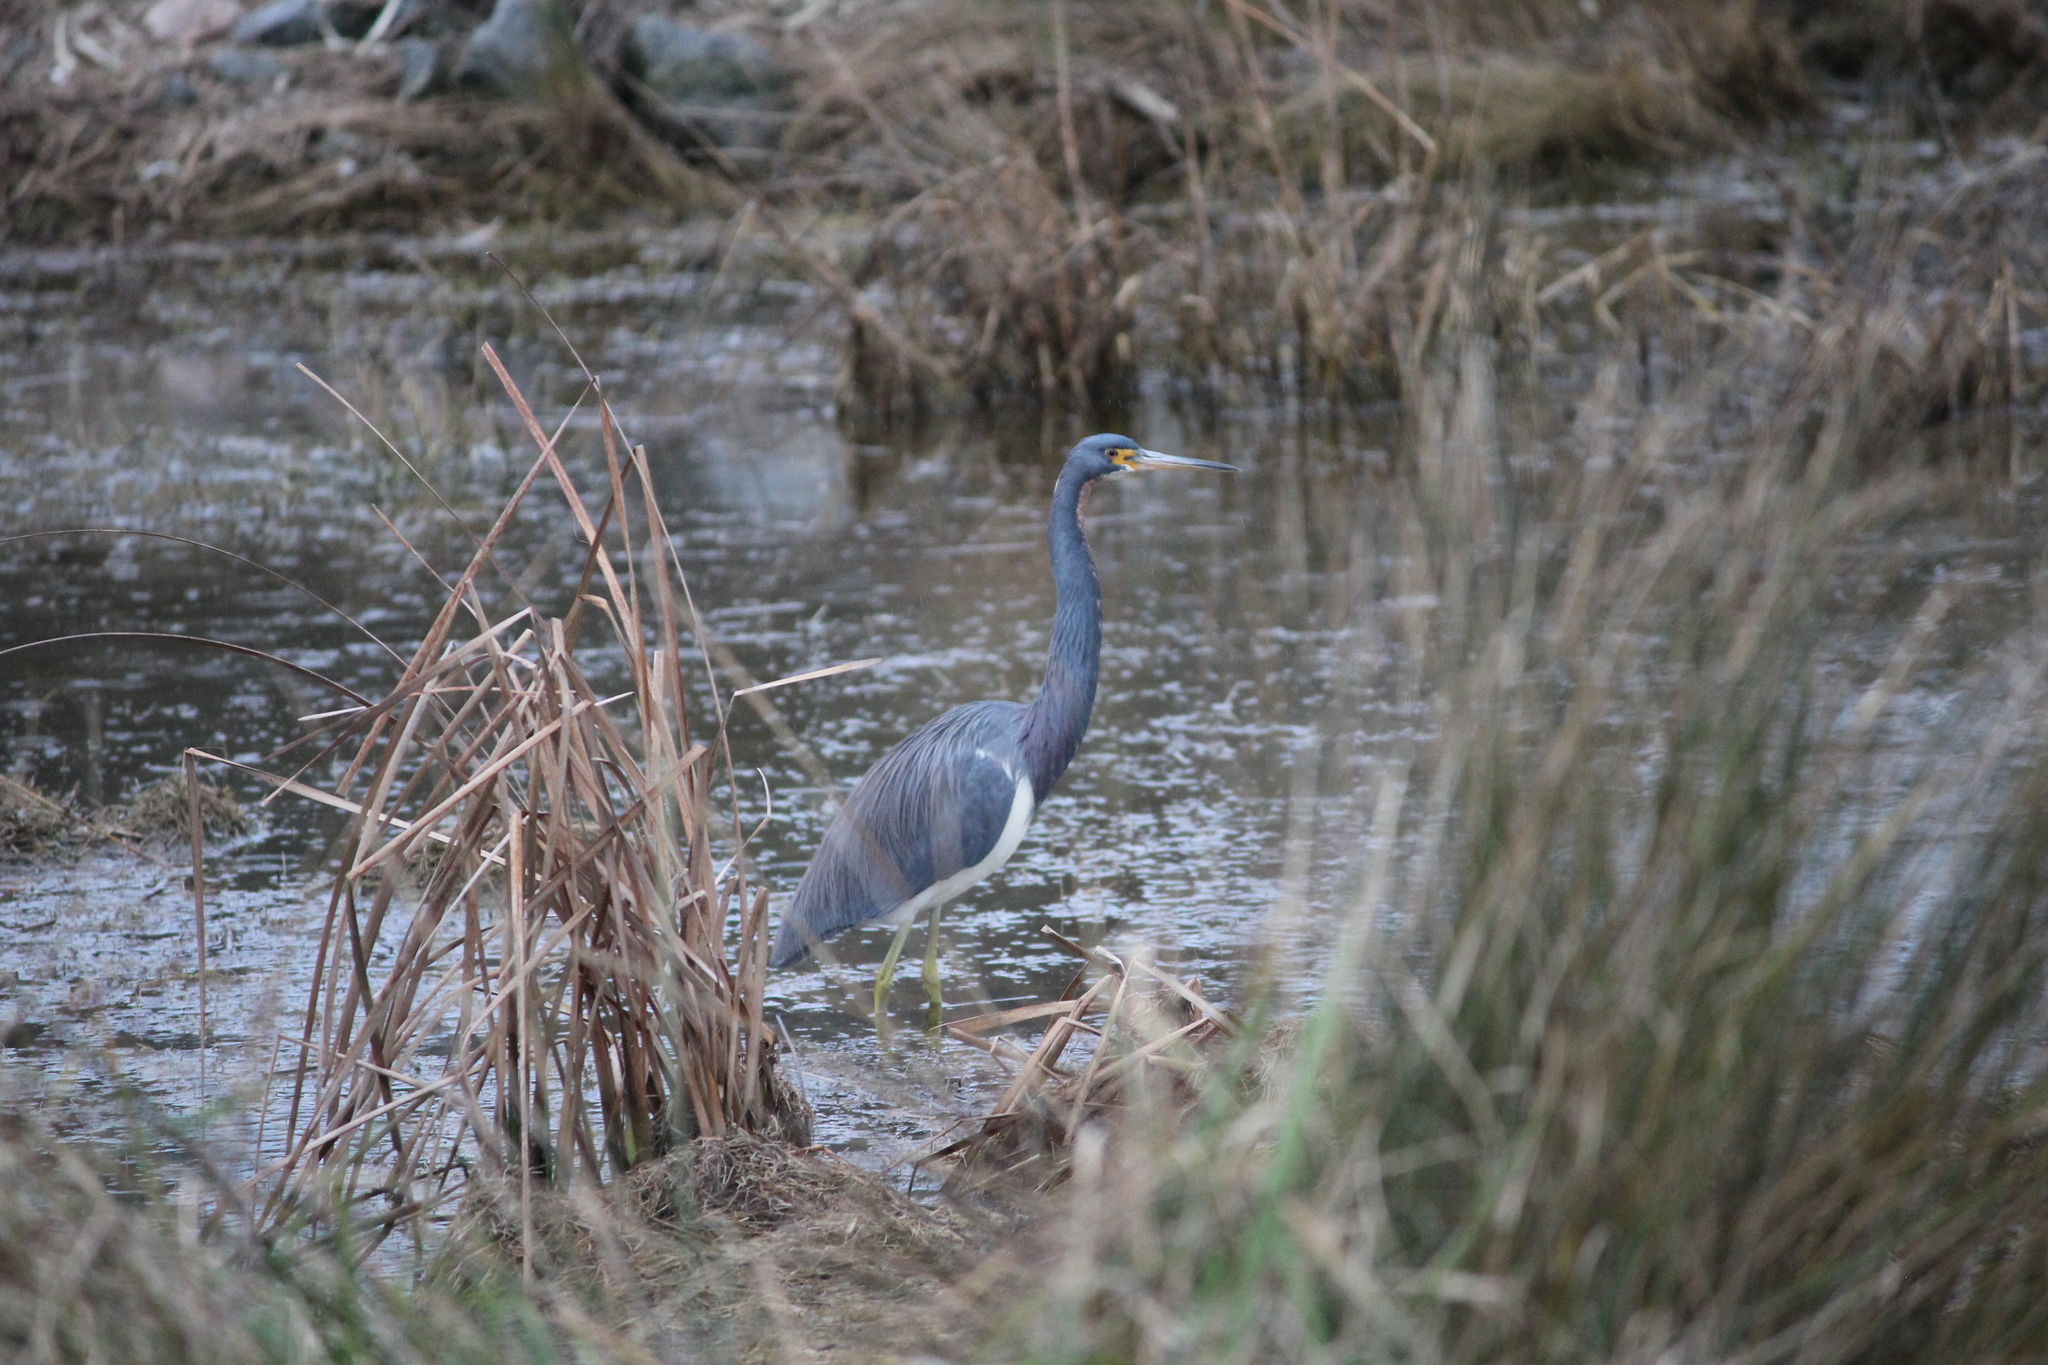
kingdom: Animalia
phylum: Chordata
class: Aves
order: Pelecaniformes
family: Ardeidae
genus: Egretta
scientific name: Egretta tricolor
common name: Tricolored heron
